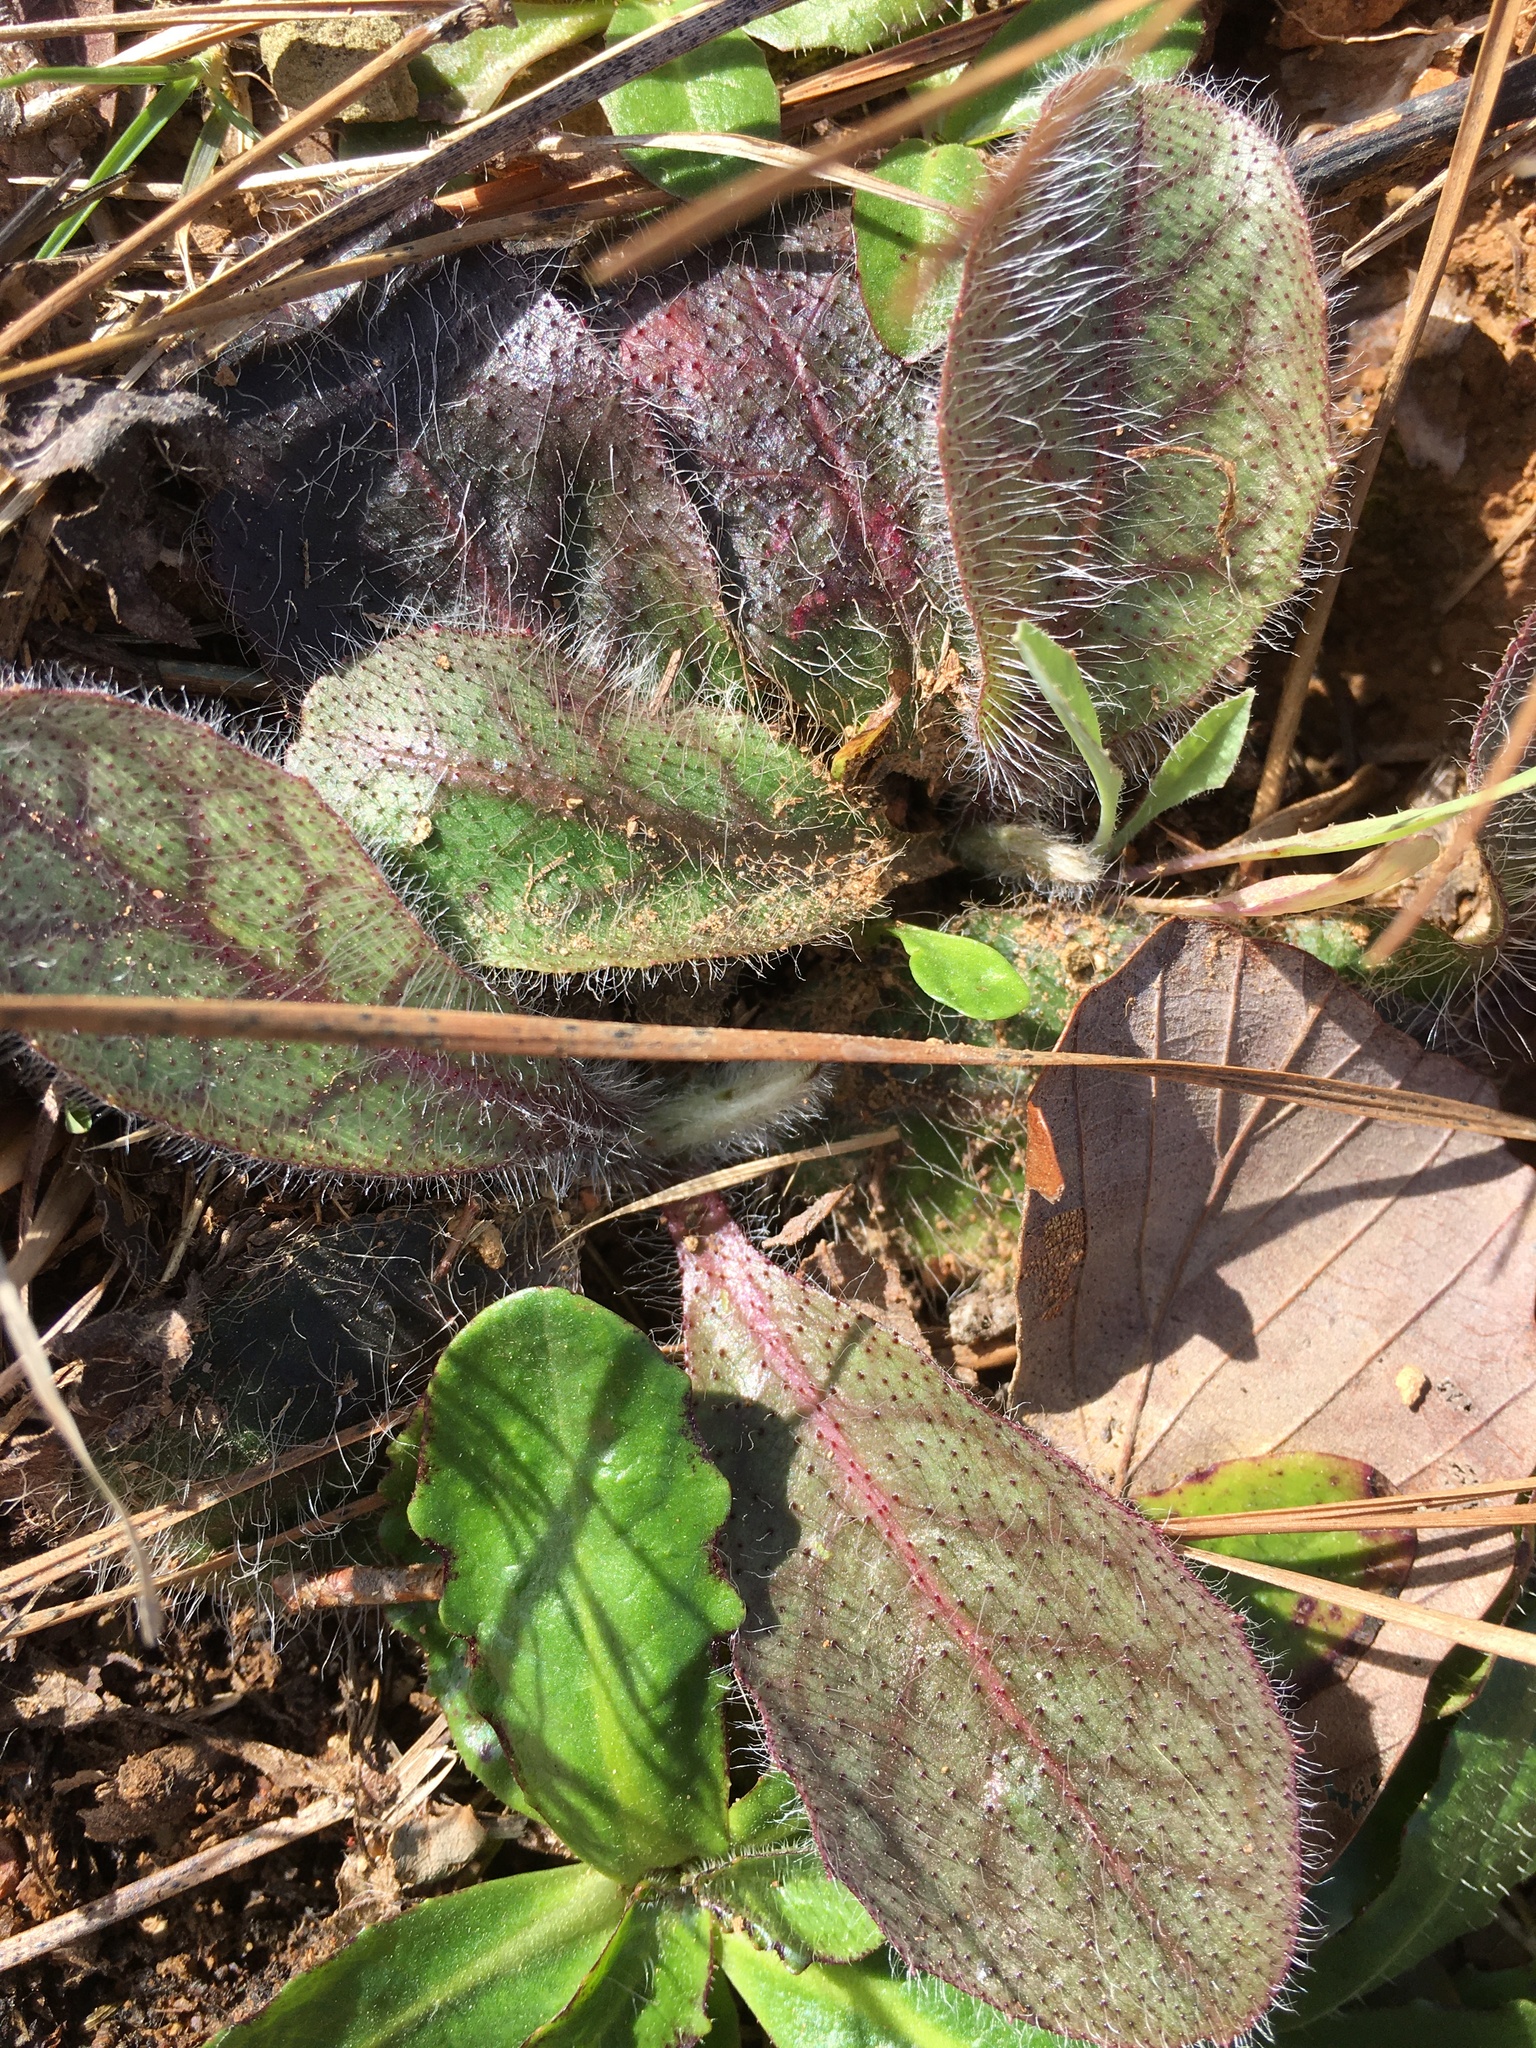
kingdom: Plantae
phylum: Tracheophyta
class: Magnoliopsida
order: Asterales
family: Asteraceae
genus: Hieracium
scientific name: Hieracium venosum
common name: Rattlesnake hawkweed
